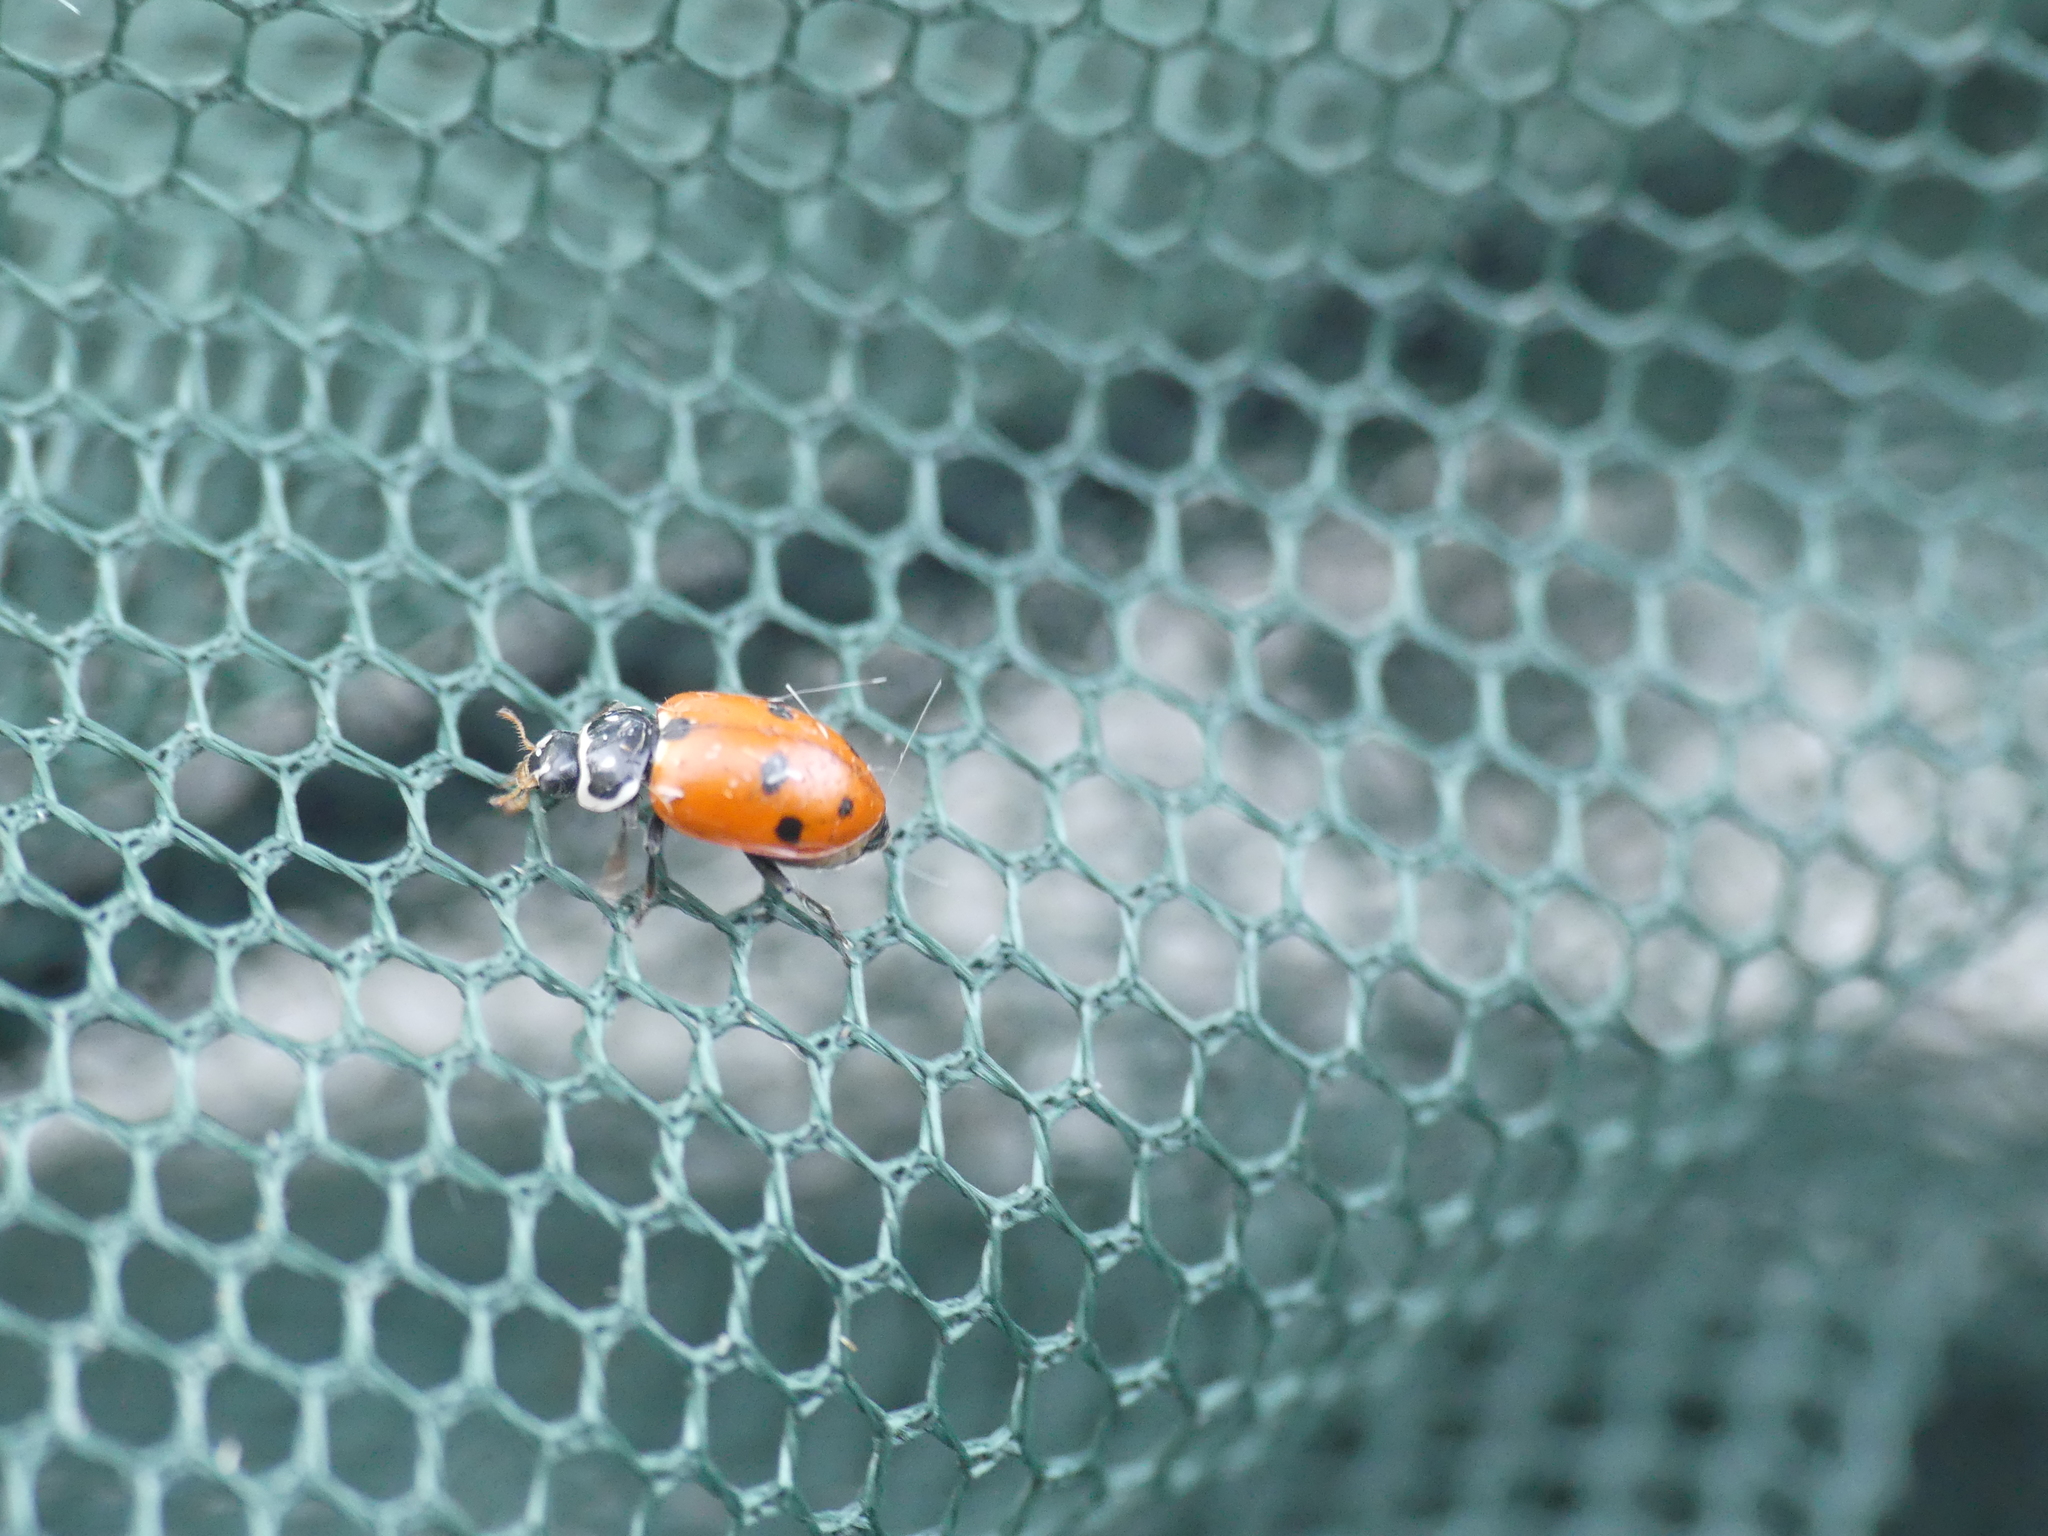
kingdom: Animalia
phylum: Arthropoda
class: Insecta
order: Coleoptera
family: Coccinellidae
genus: Hippodamia
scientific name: Hippodamia variegata
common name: Ladybird beetle
